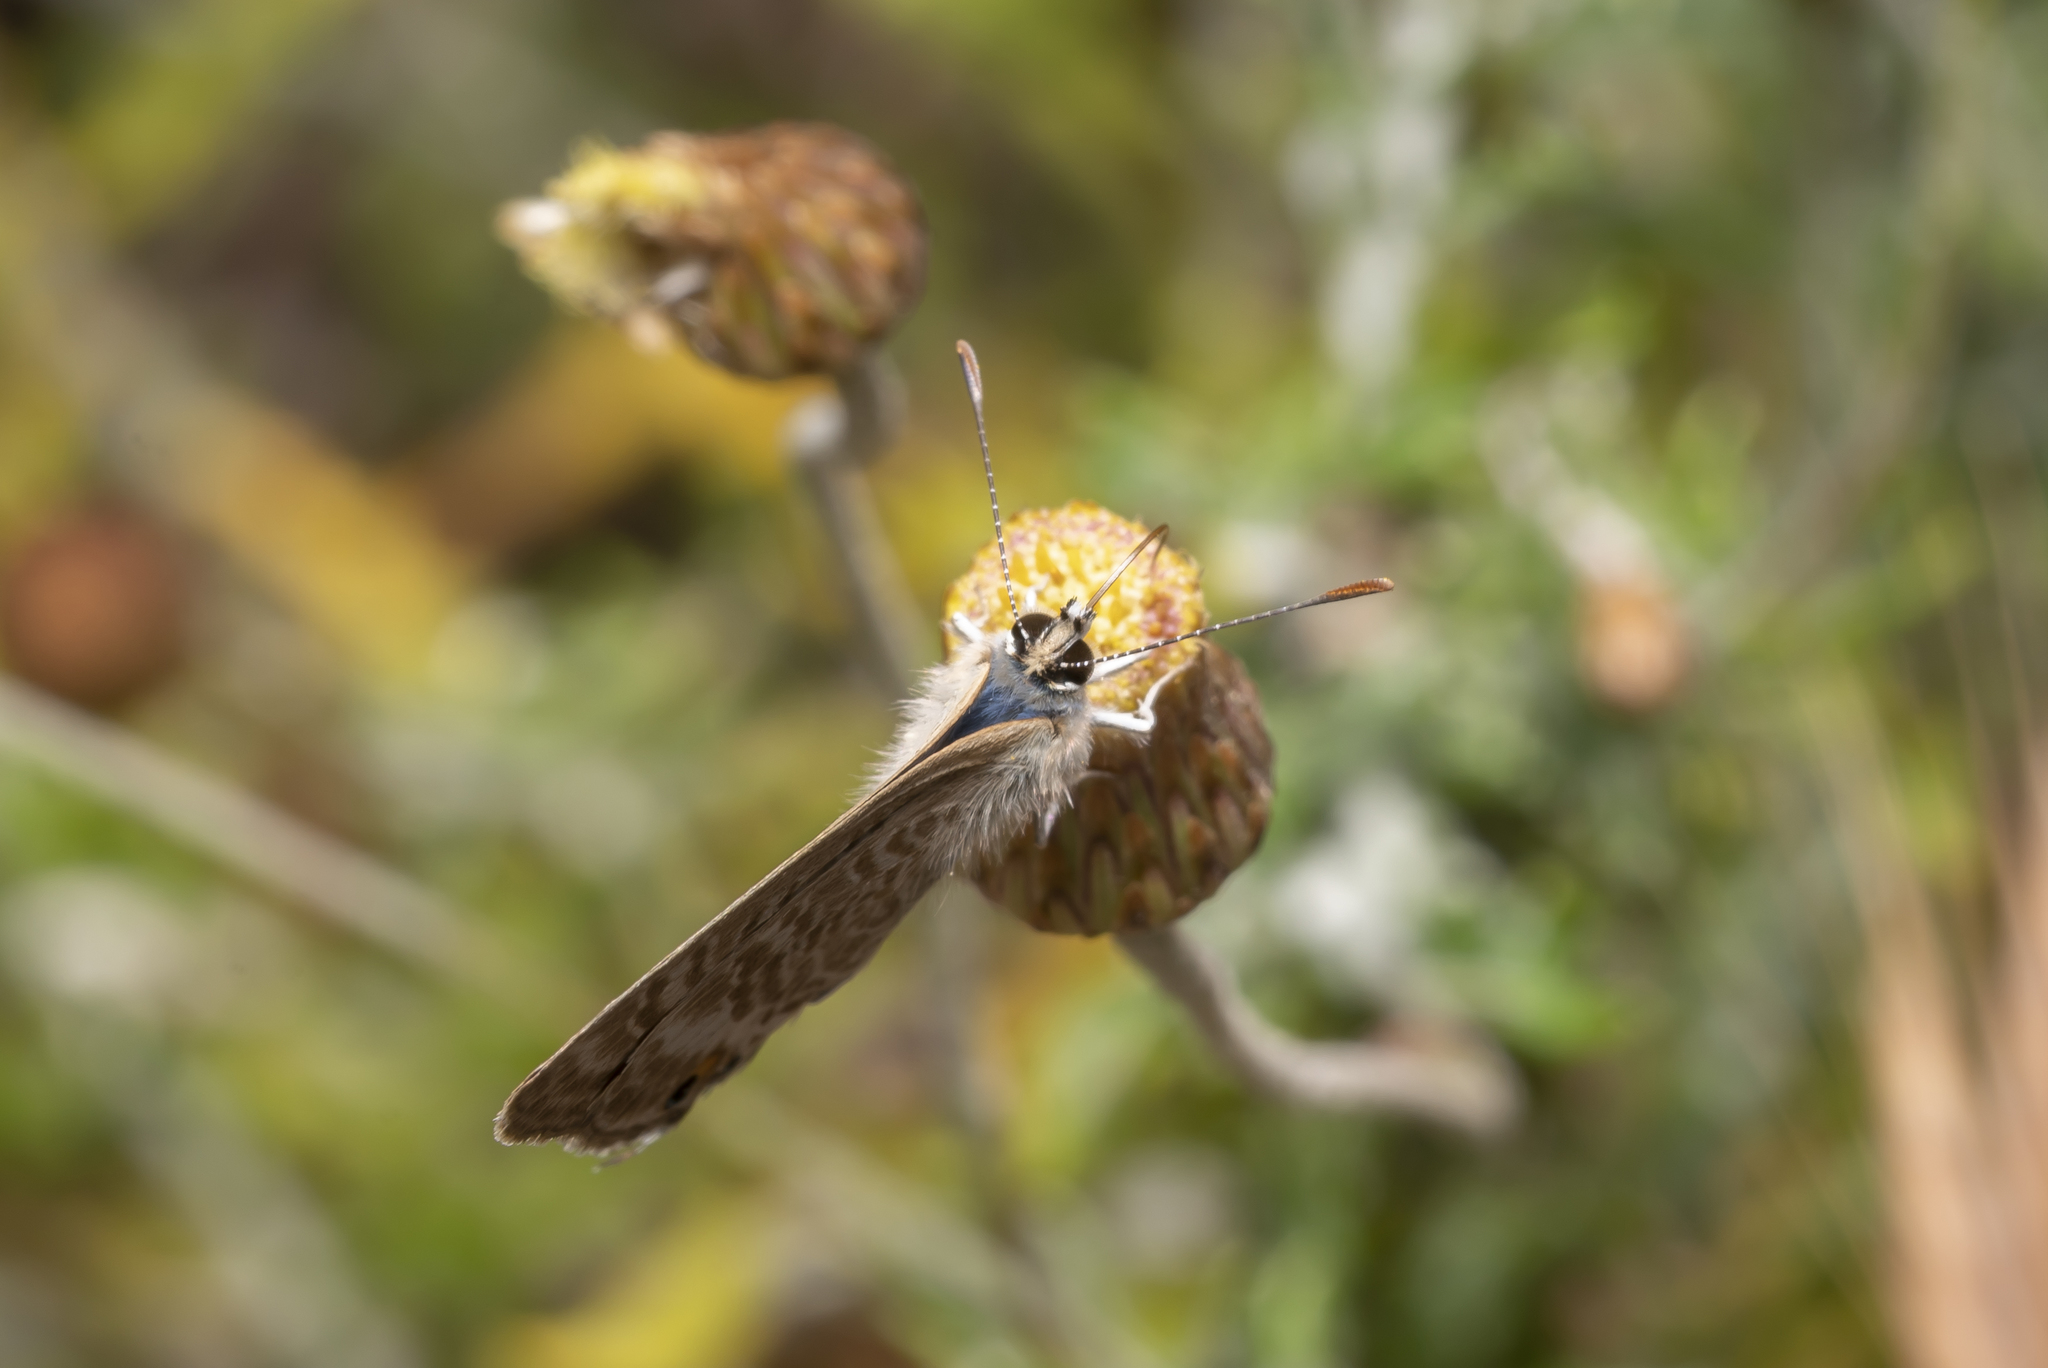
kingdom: Animalia
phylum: Arthropoda
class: Insecta
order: Lepidoptera
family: Lycaenidae
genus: Lampides
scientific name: Lampides boeticus
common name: Long-tailed blue
